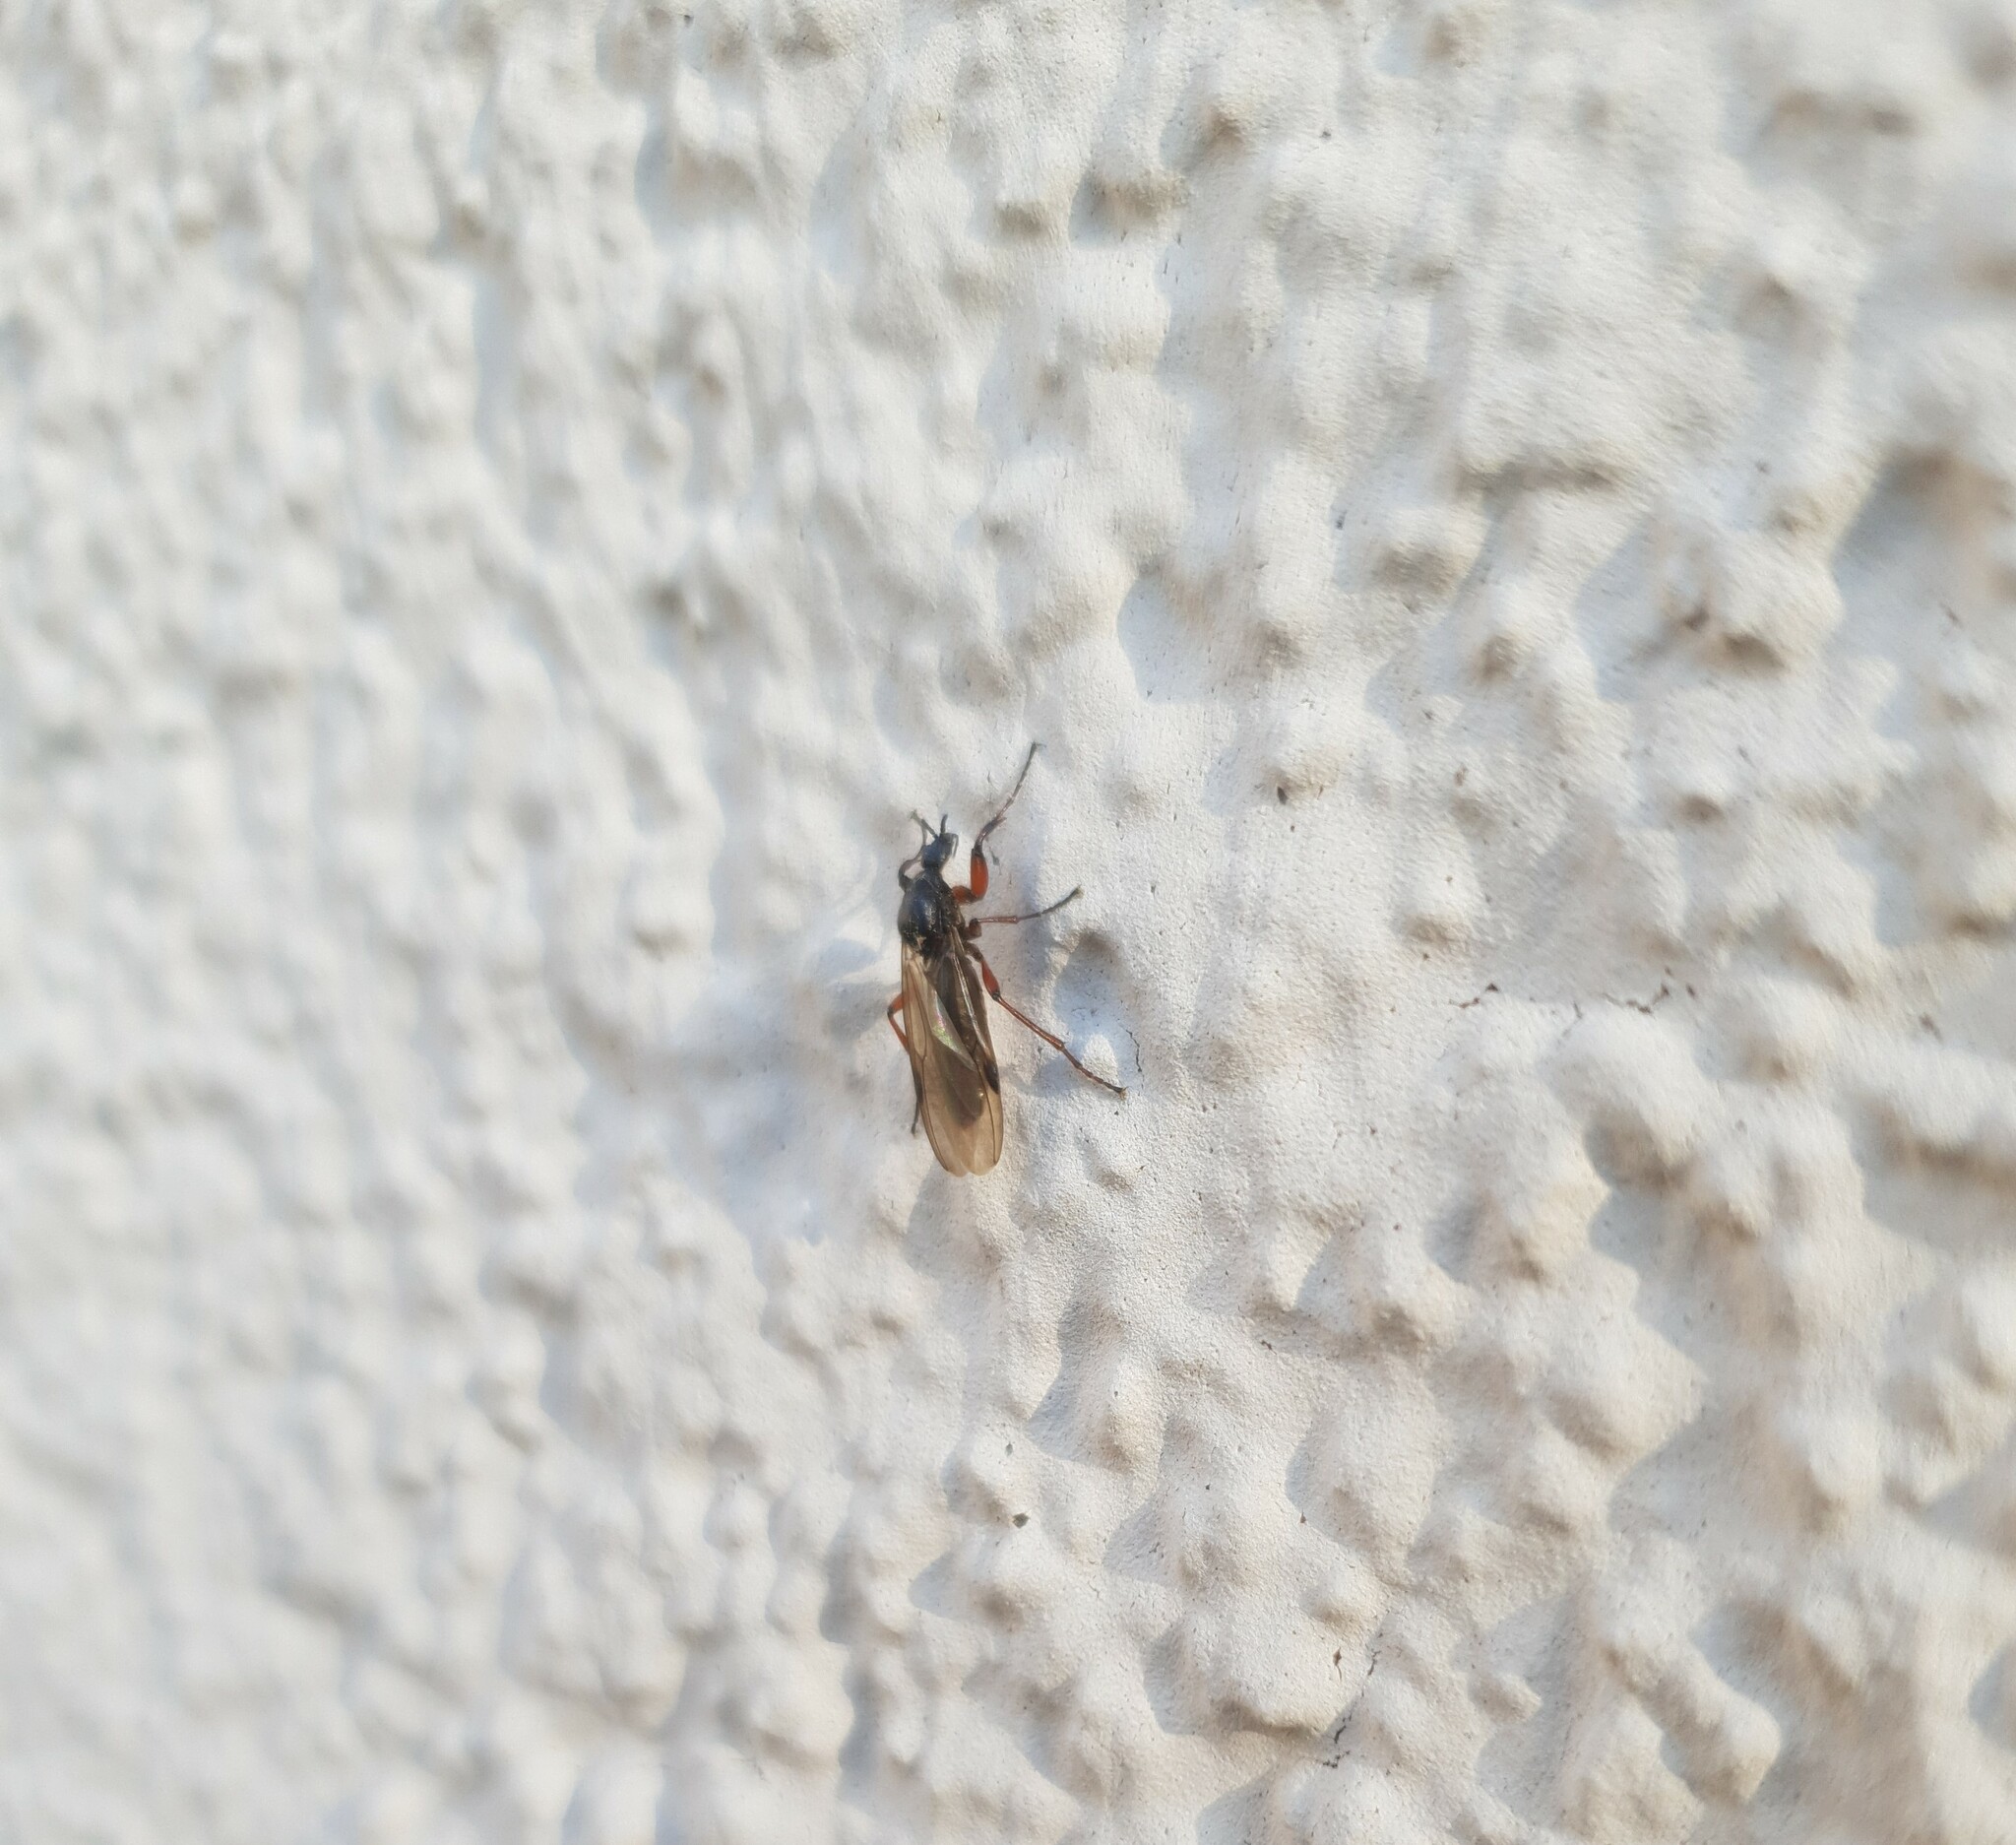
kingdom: Animalia
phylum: Arthropoda
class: Insecta
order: Diptera
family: Bibionidae
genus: Bibio
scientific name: Bibio varipes
